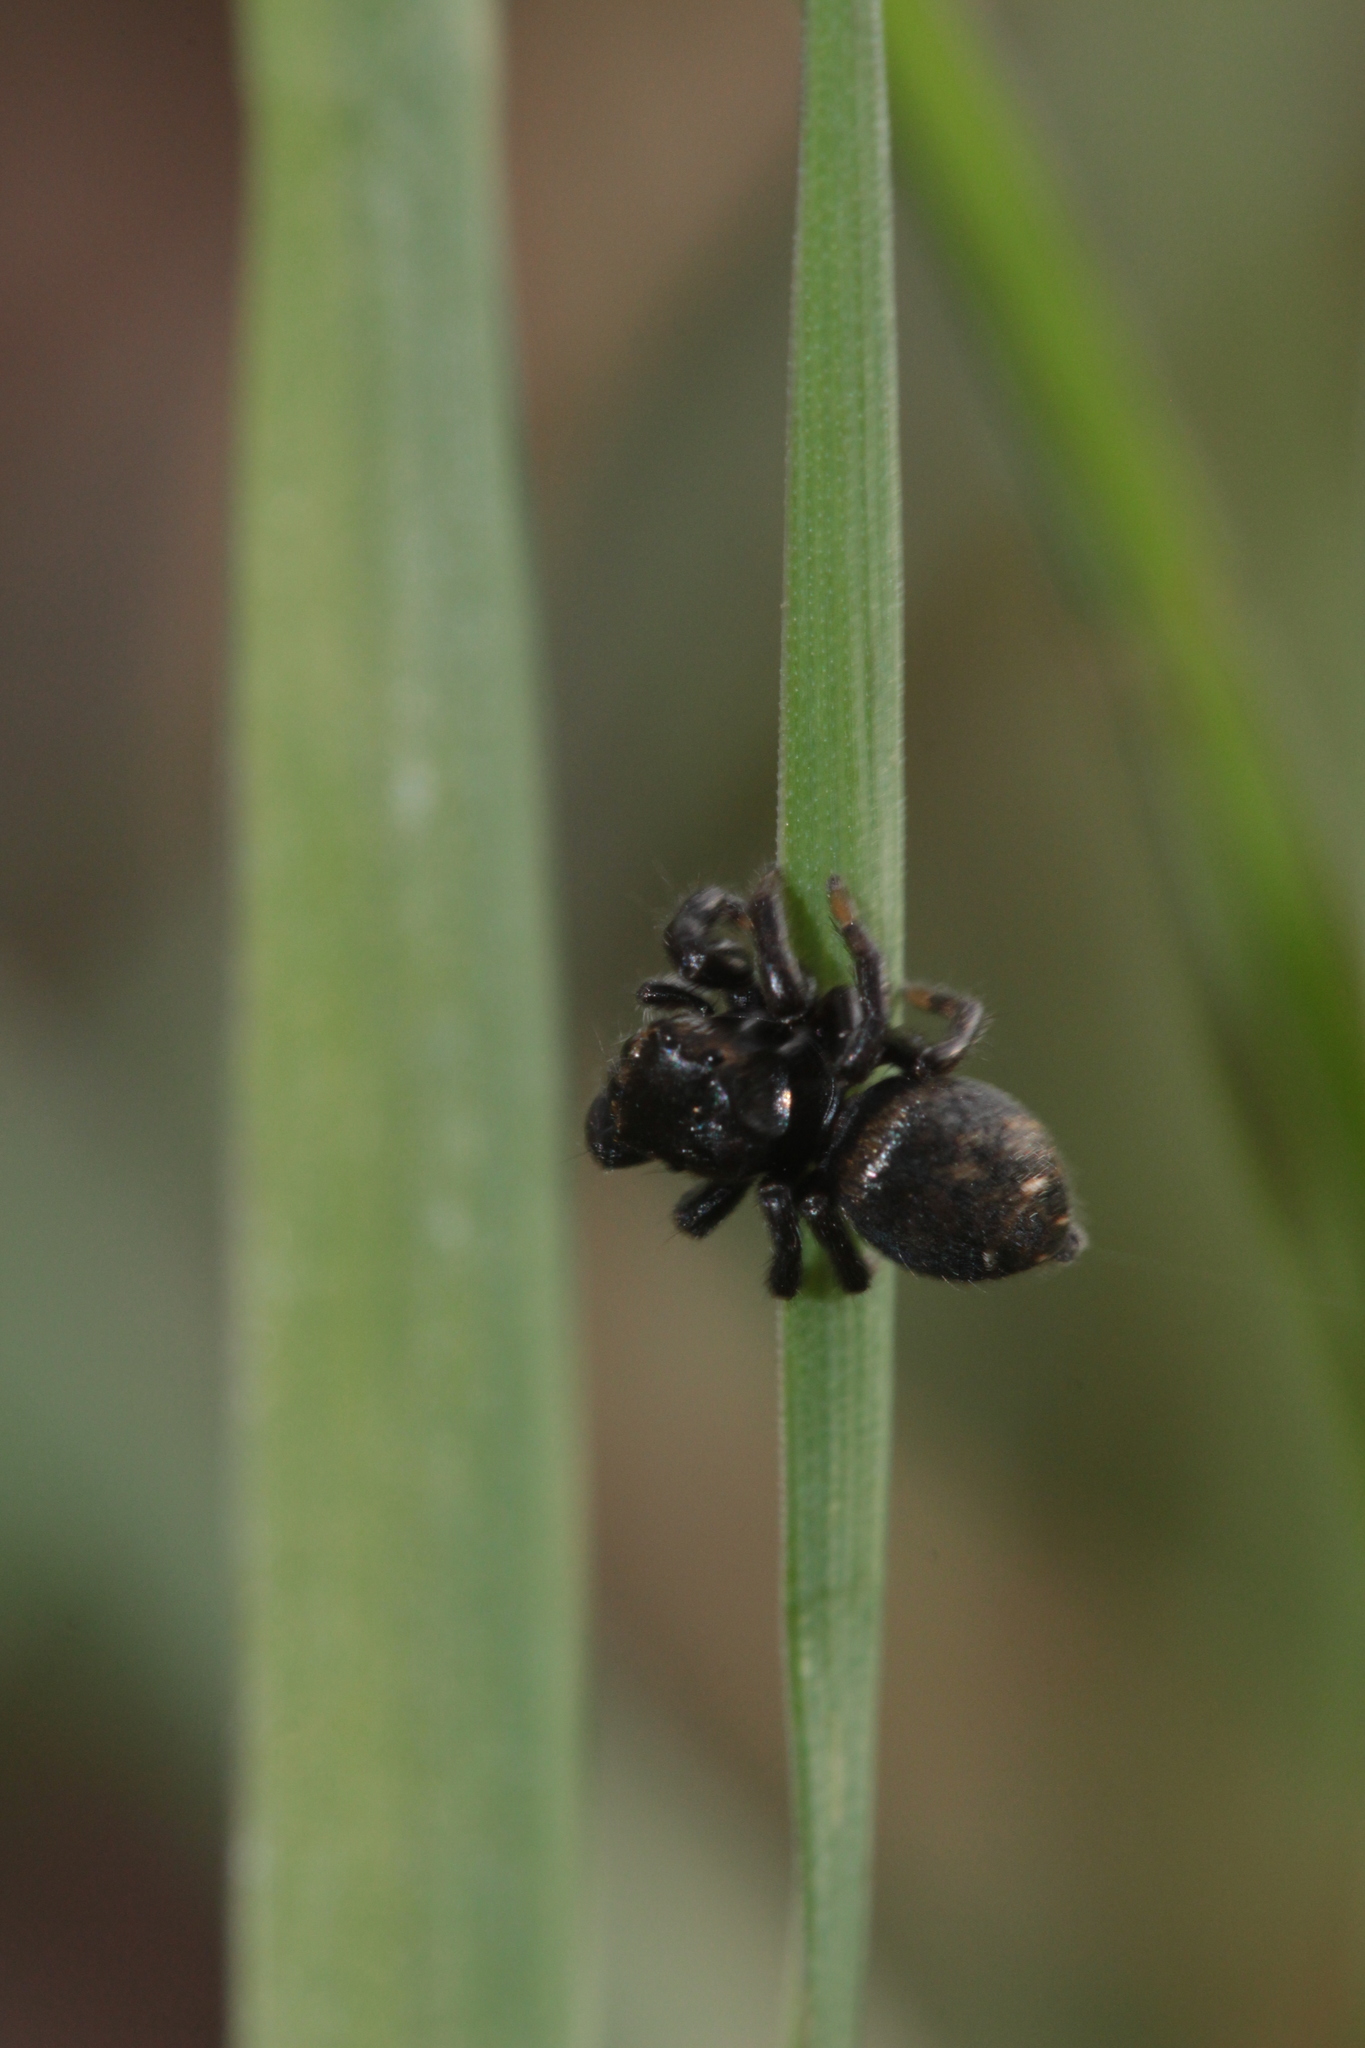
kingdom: Animalia
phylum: Arthropoda
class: Arachnida
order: Araneae
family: Salticidae
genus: Evarcha
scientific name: Evarcha arcuata
